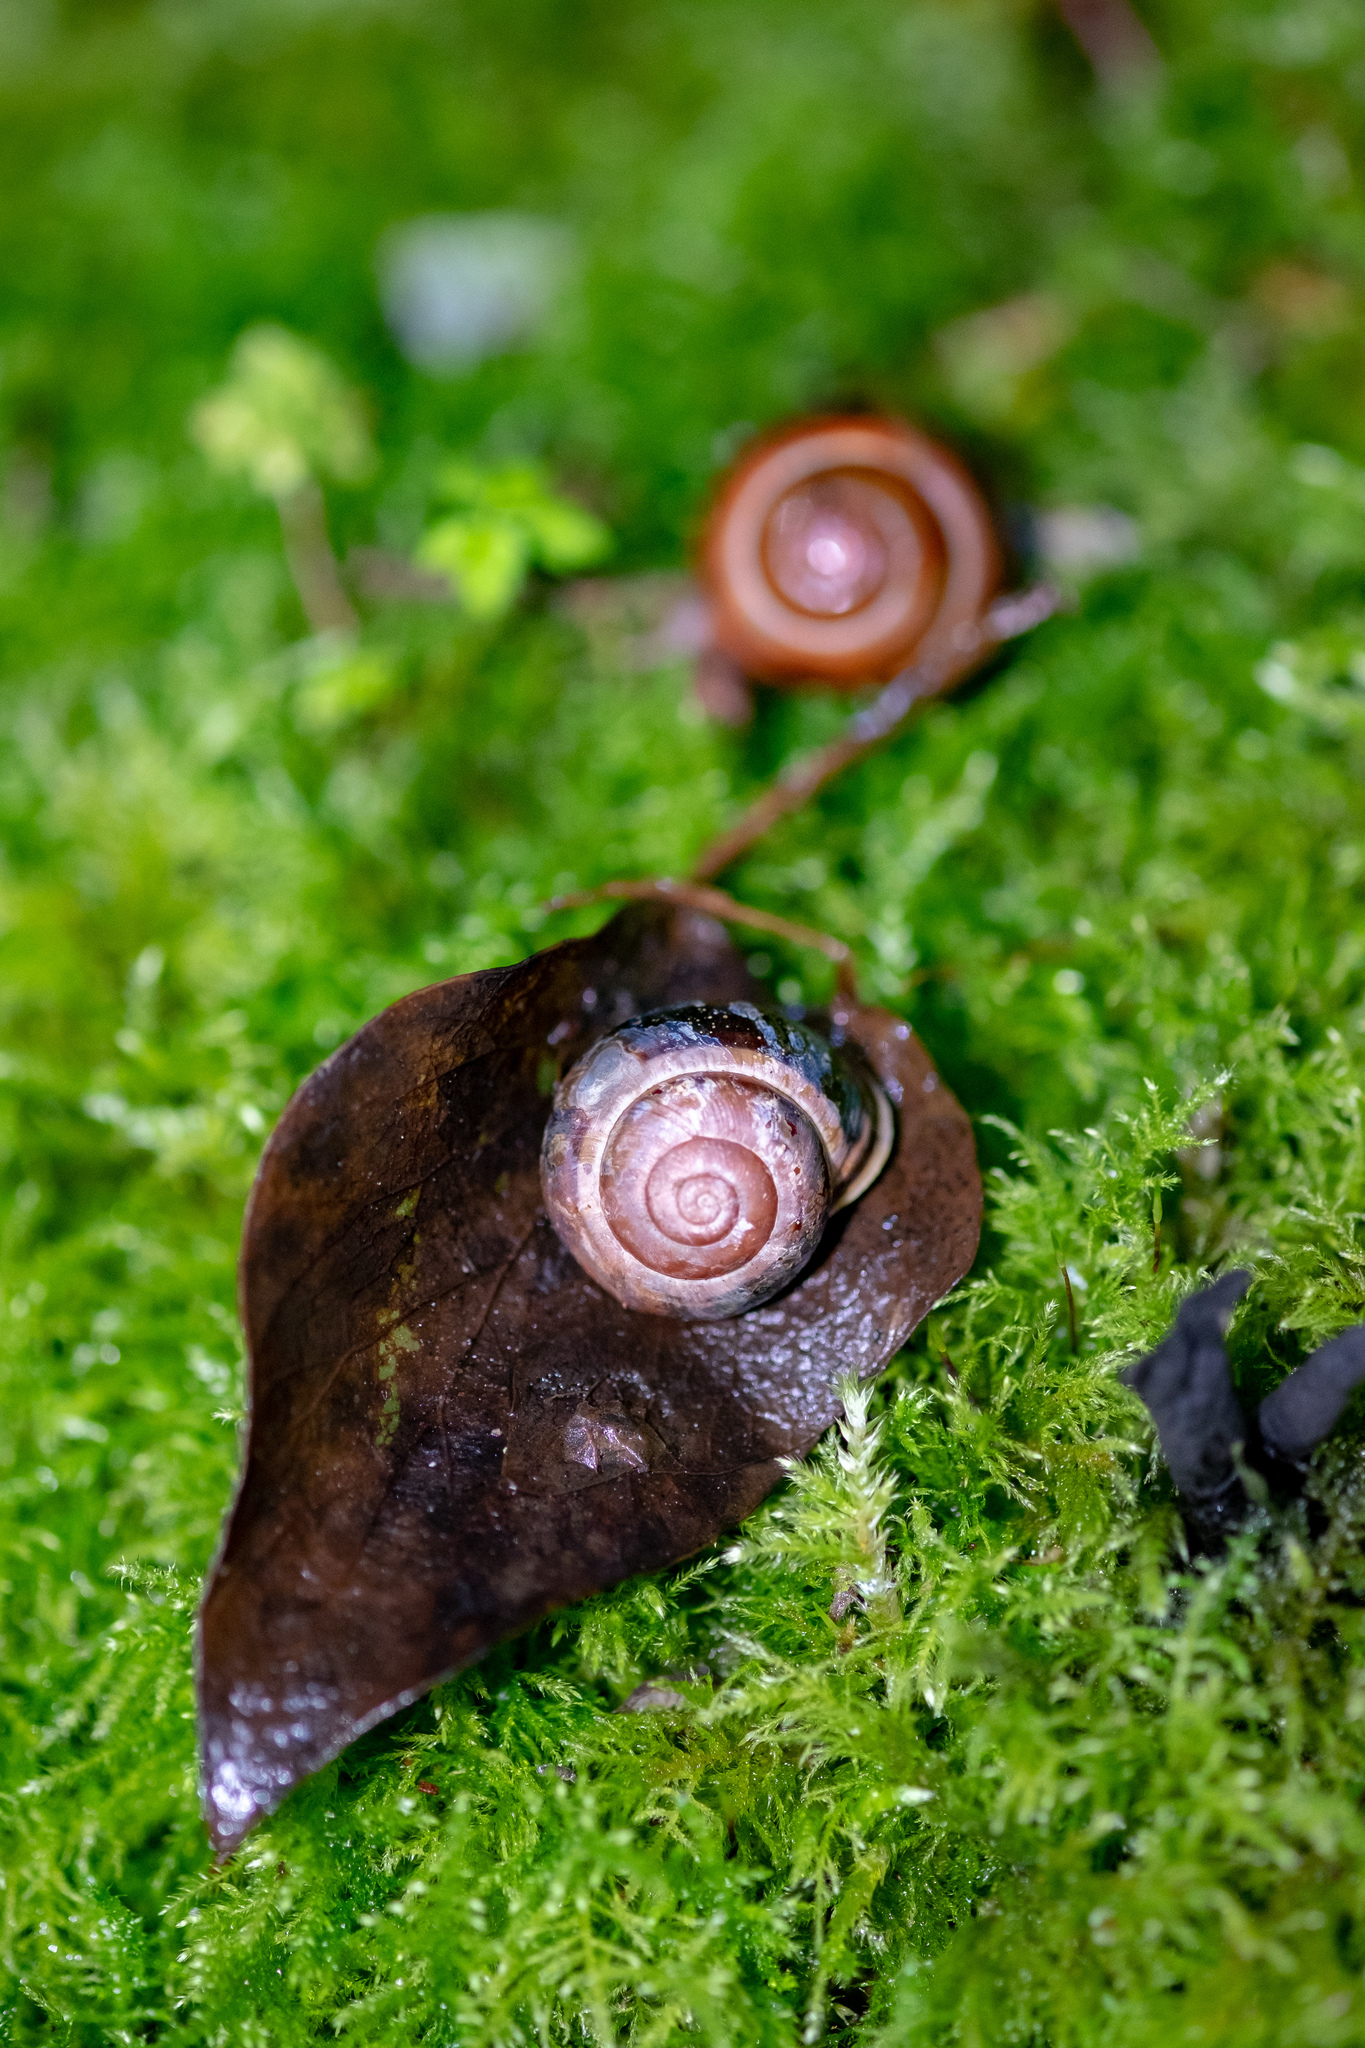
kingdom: Animalia
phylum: Mollusca
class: Gastropoda
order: Stylommatophora
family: Helicidae
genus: Cepaea
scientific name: Cepaea nemoralis
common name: Grovesnail
